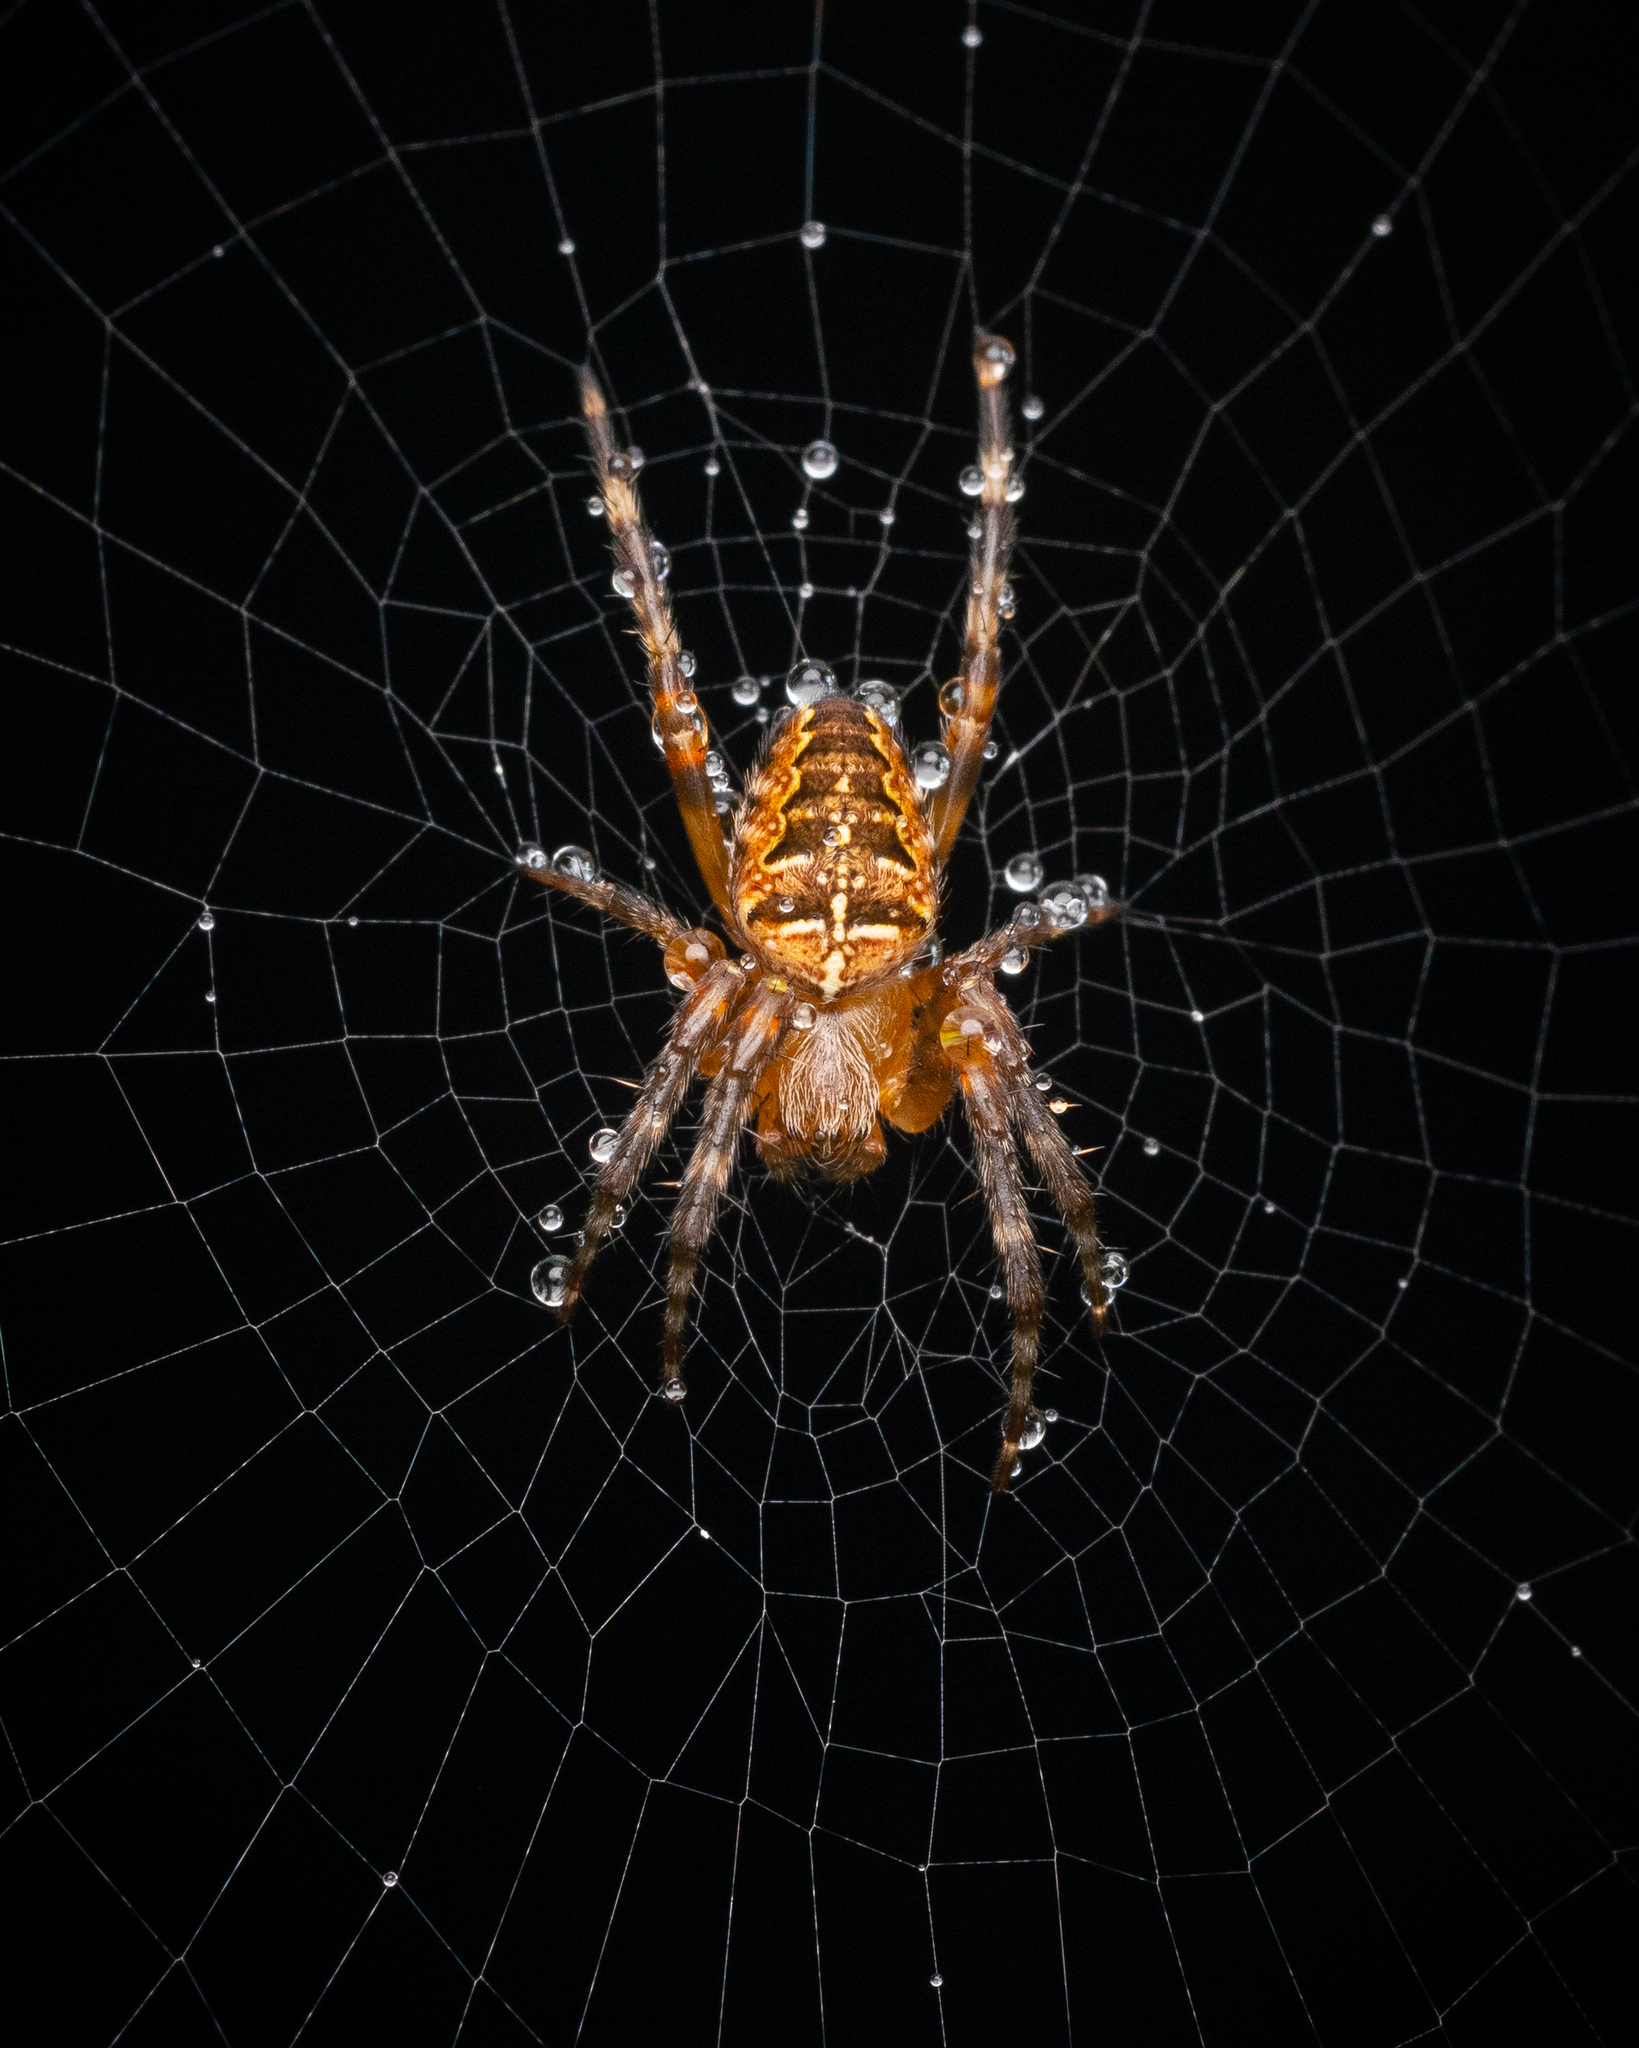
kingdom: Animalia
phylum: Arthropoda
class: Arachnida
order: Araneae
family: Araneidae
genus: Araneus
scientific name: Araneus diadematus
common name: Cross orbweaver
